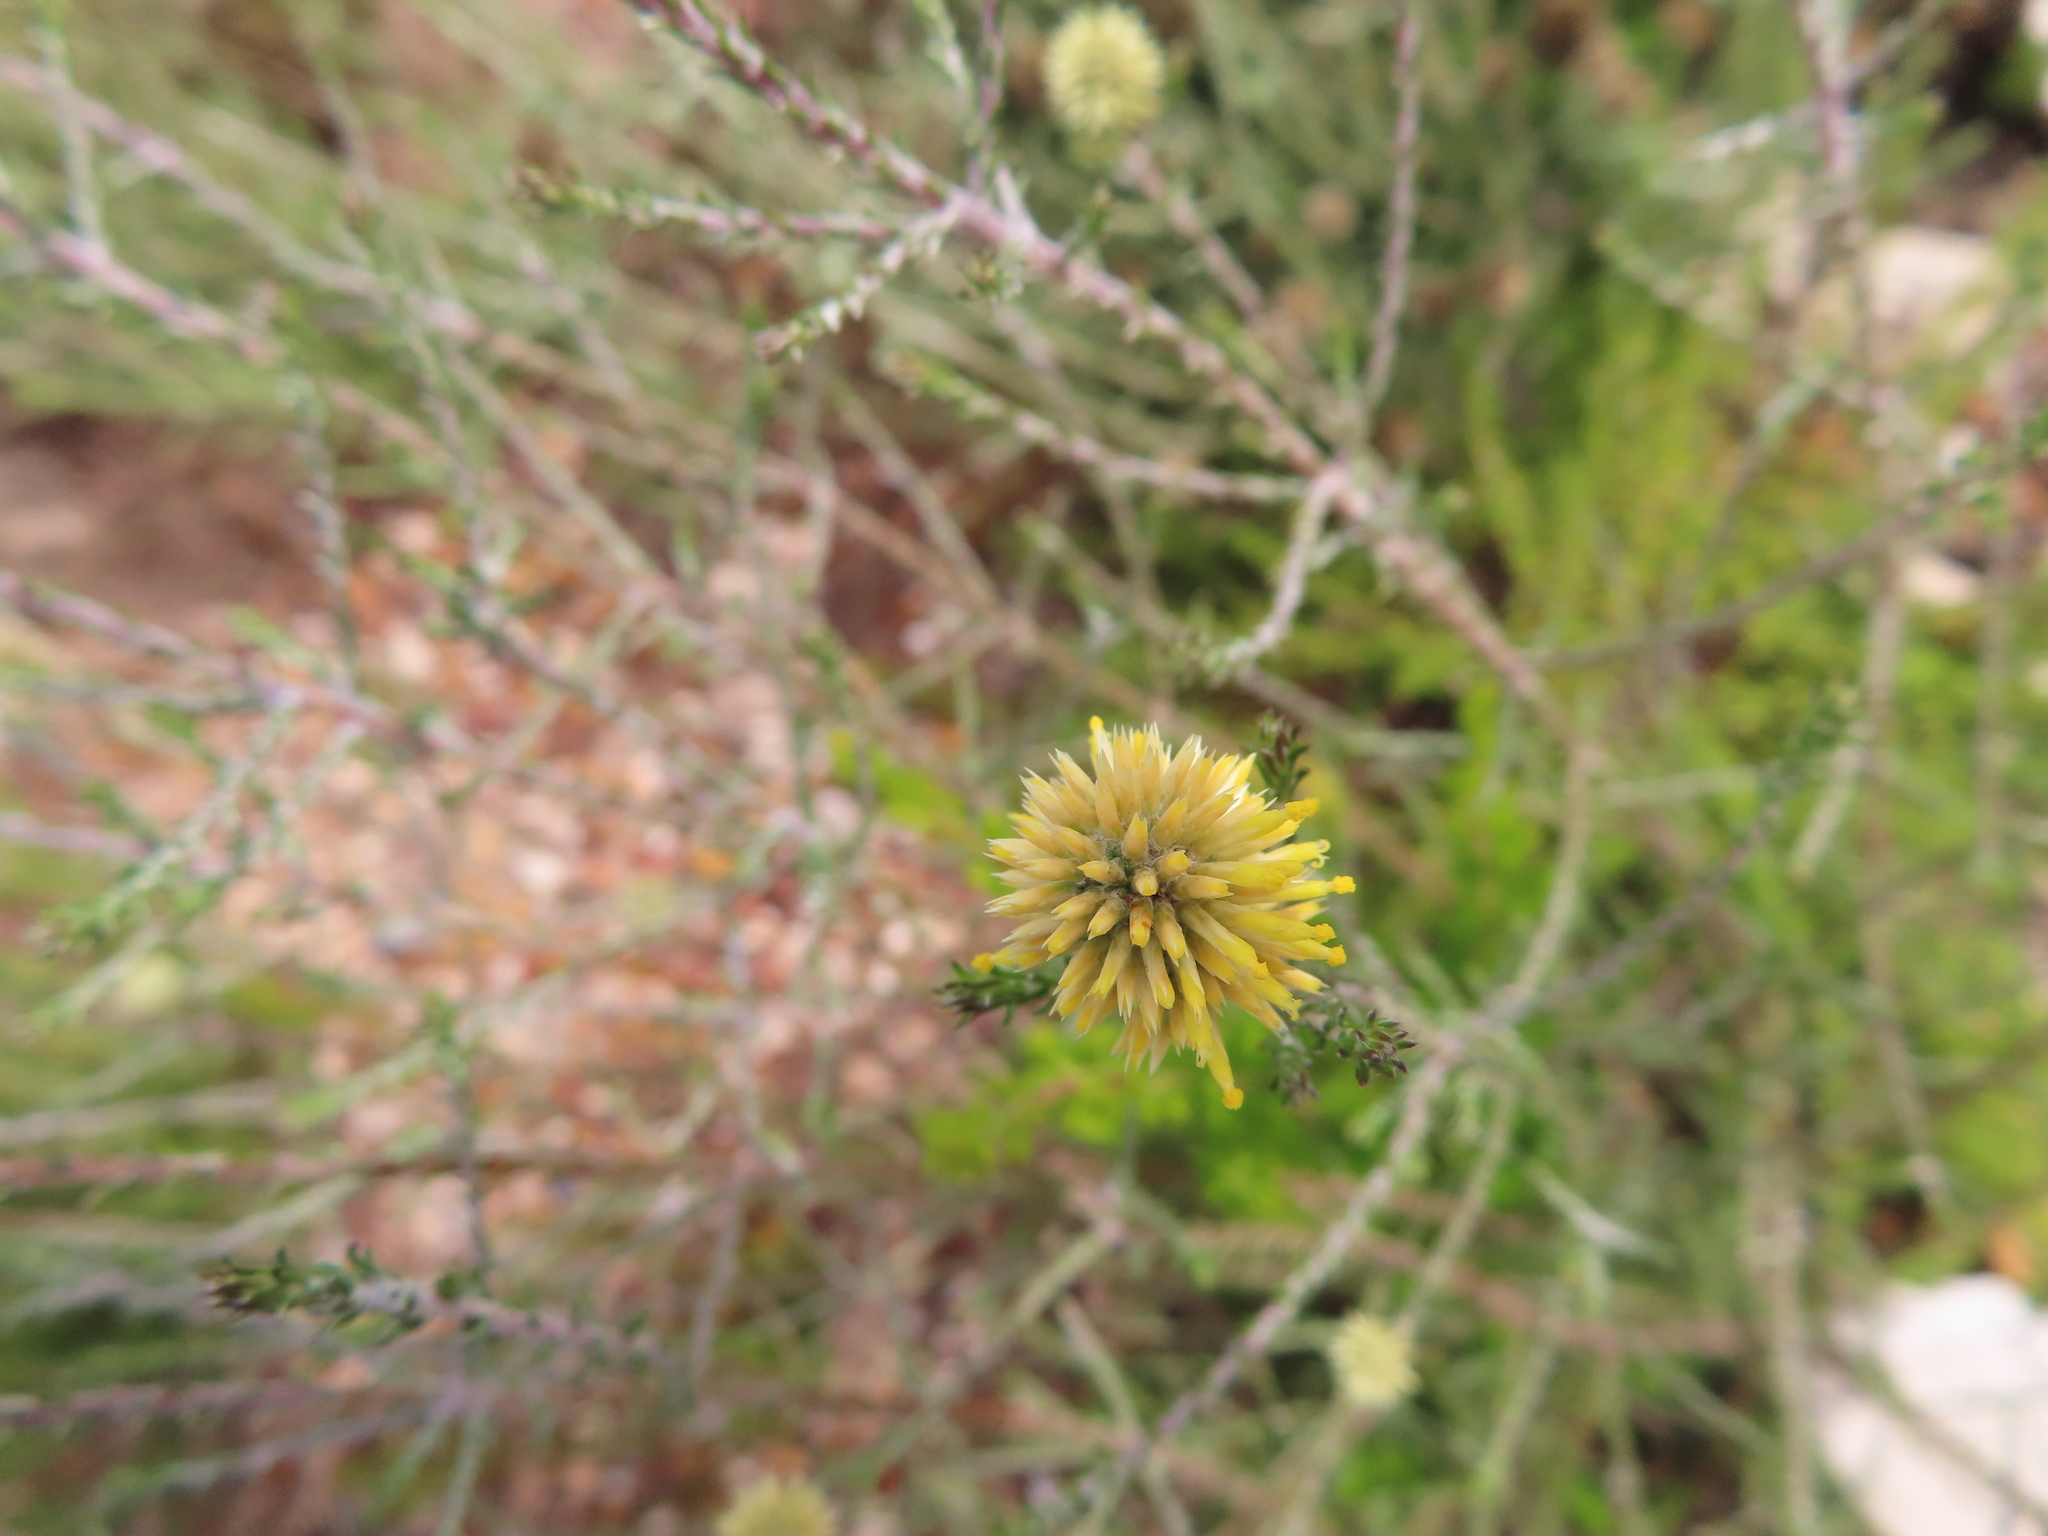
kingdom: Plantae
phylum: Tracheophyta
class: Magnoliopsida
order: Asterales
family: Asteraceae
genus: Seriphium
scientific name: Seriphium spirale
